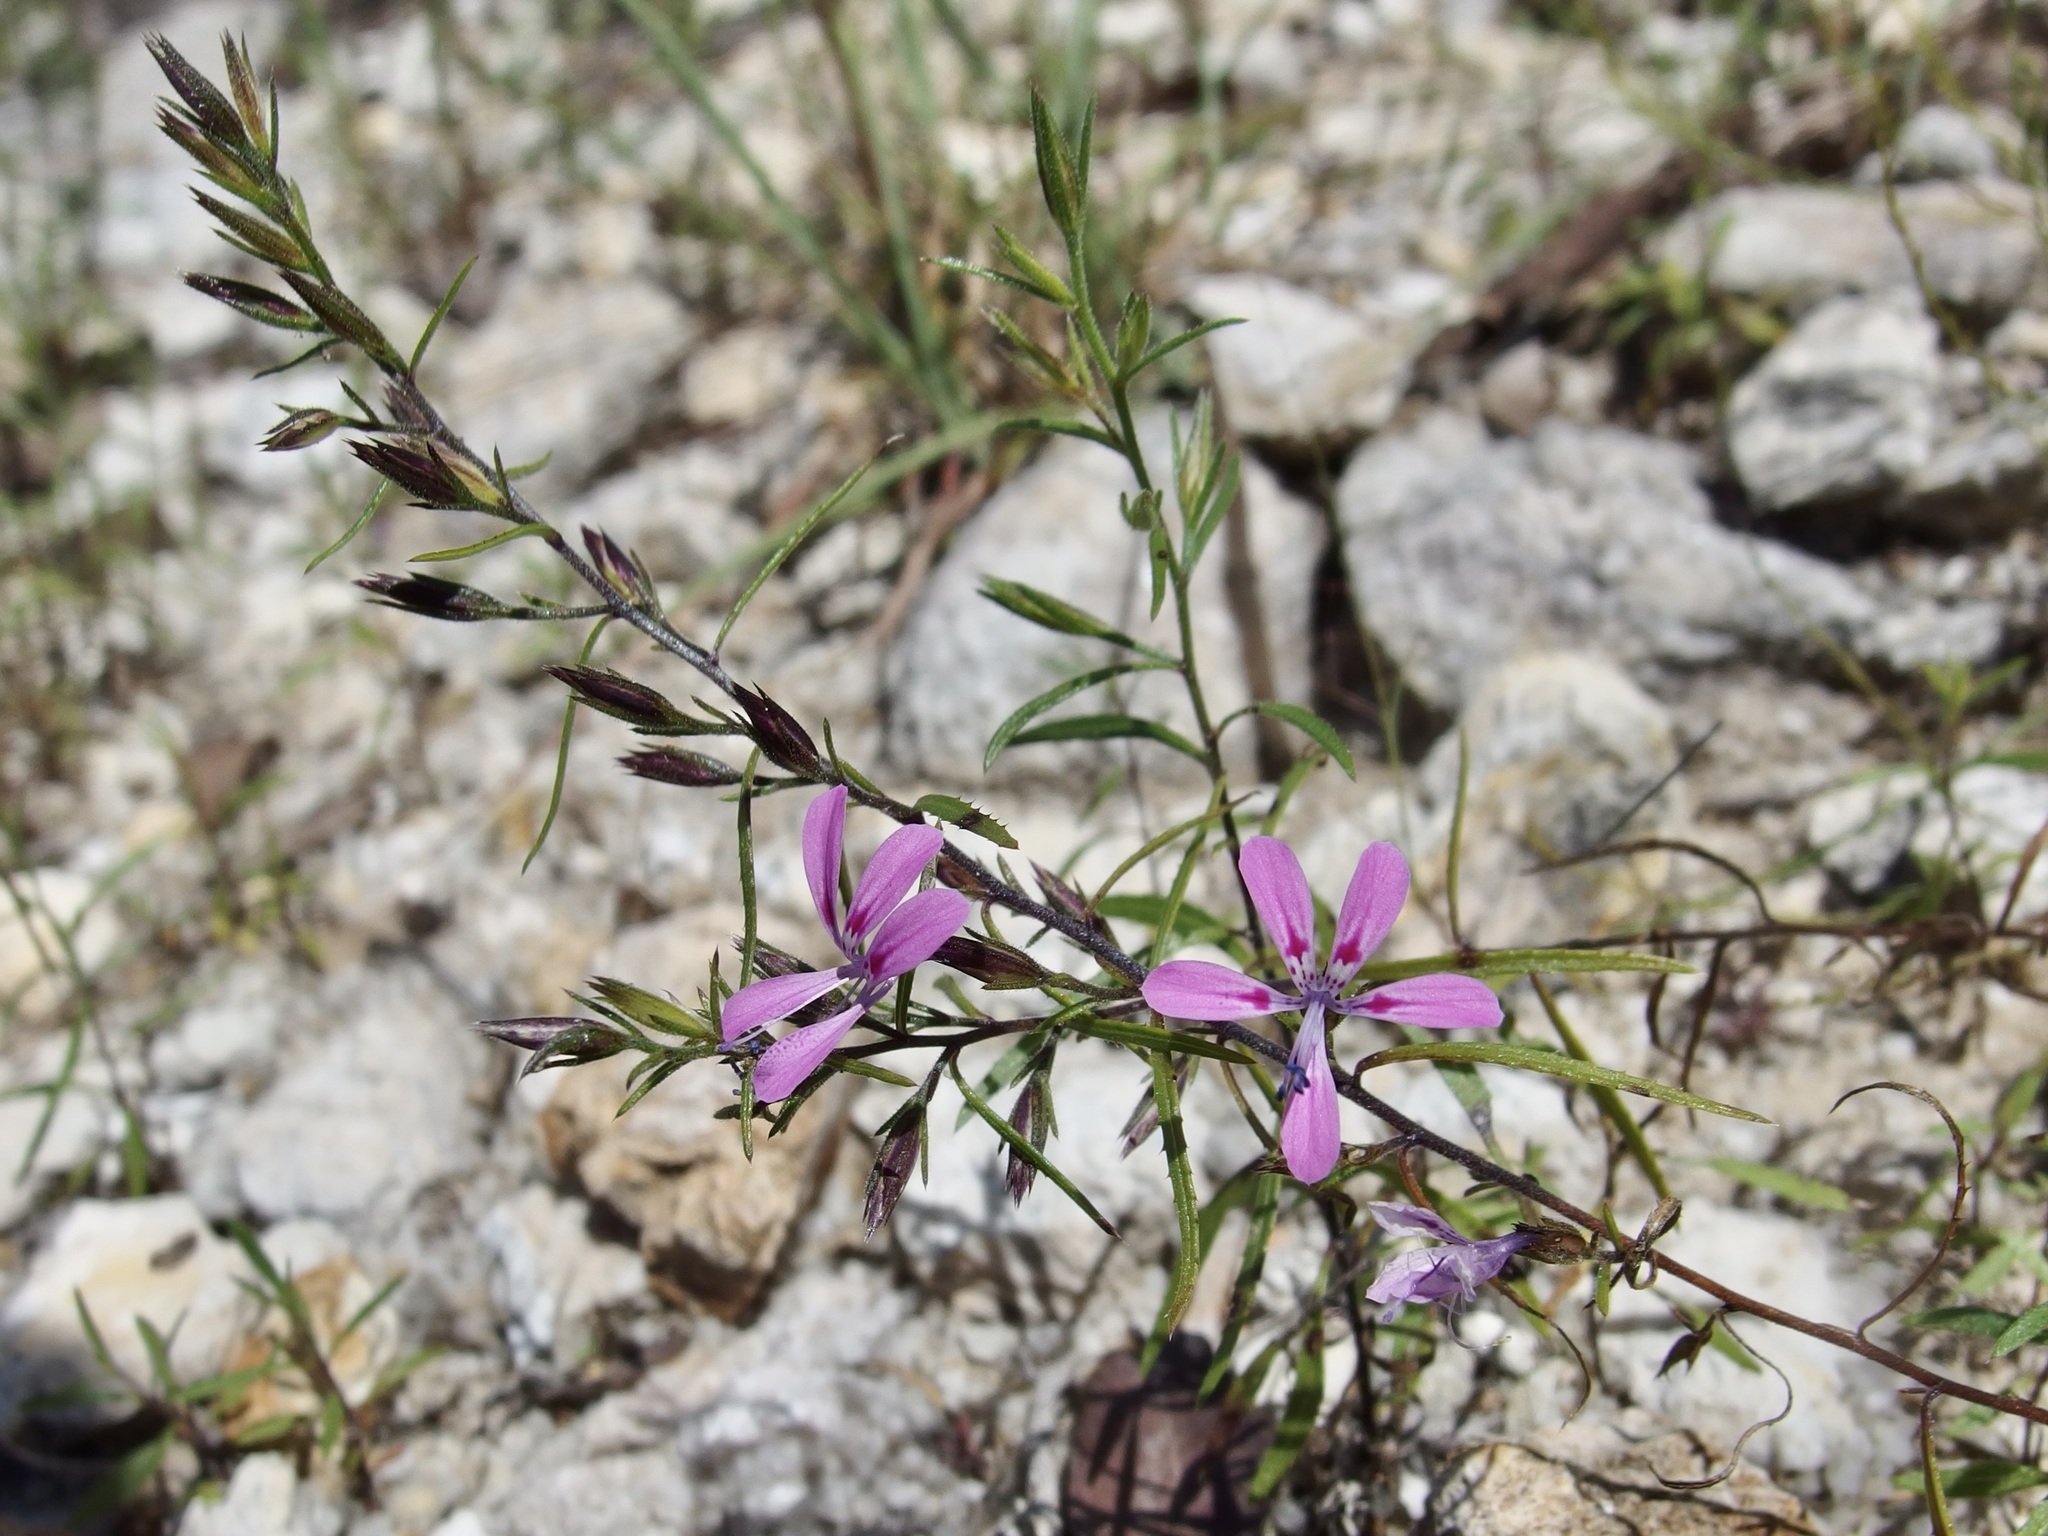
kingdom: Plantae
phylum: Tracheophyta
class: Magnoliopsida
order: Ericales
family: Polemoniaceae
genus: Loeselia
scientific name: Loeselia glandulosa
